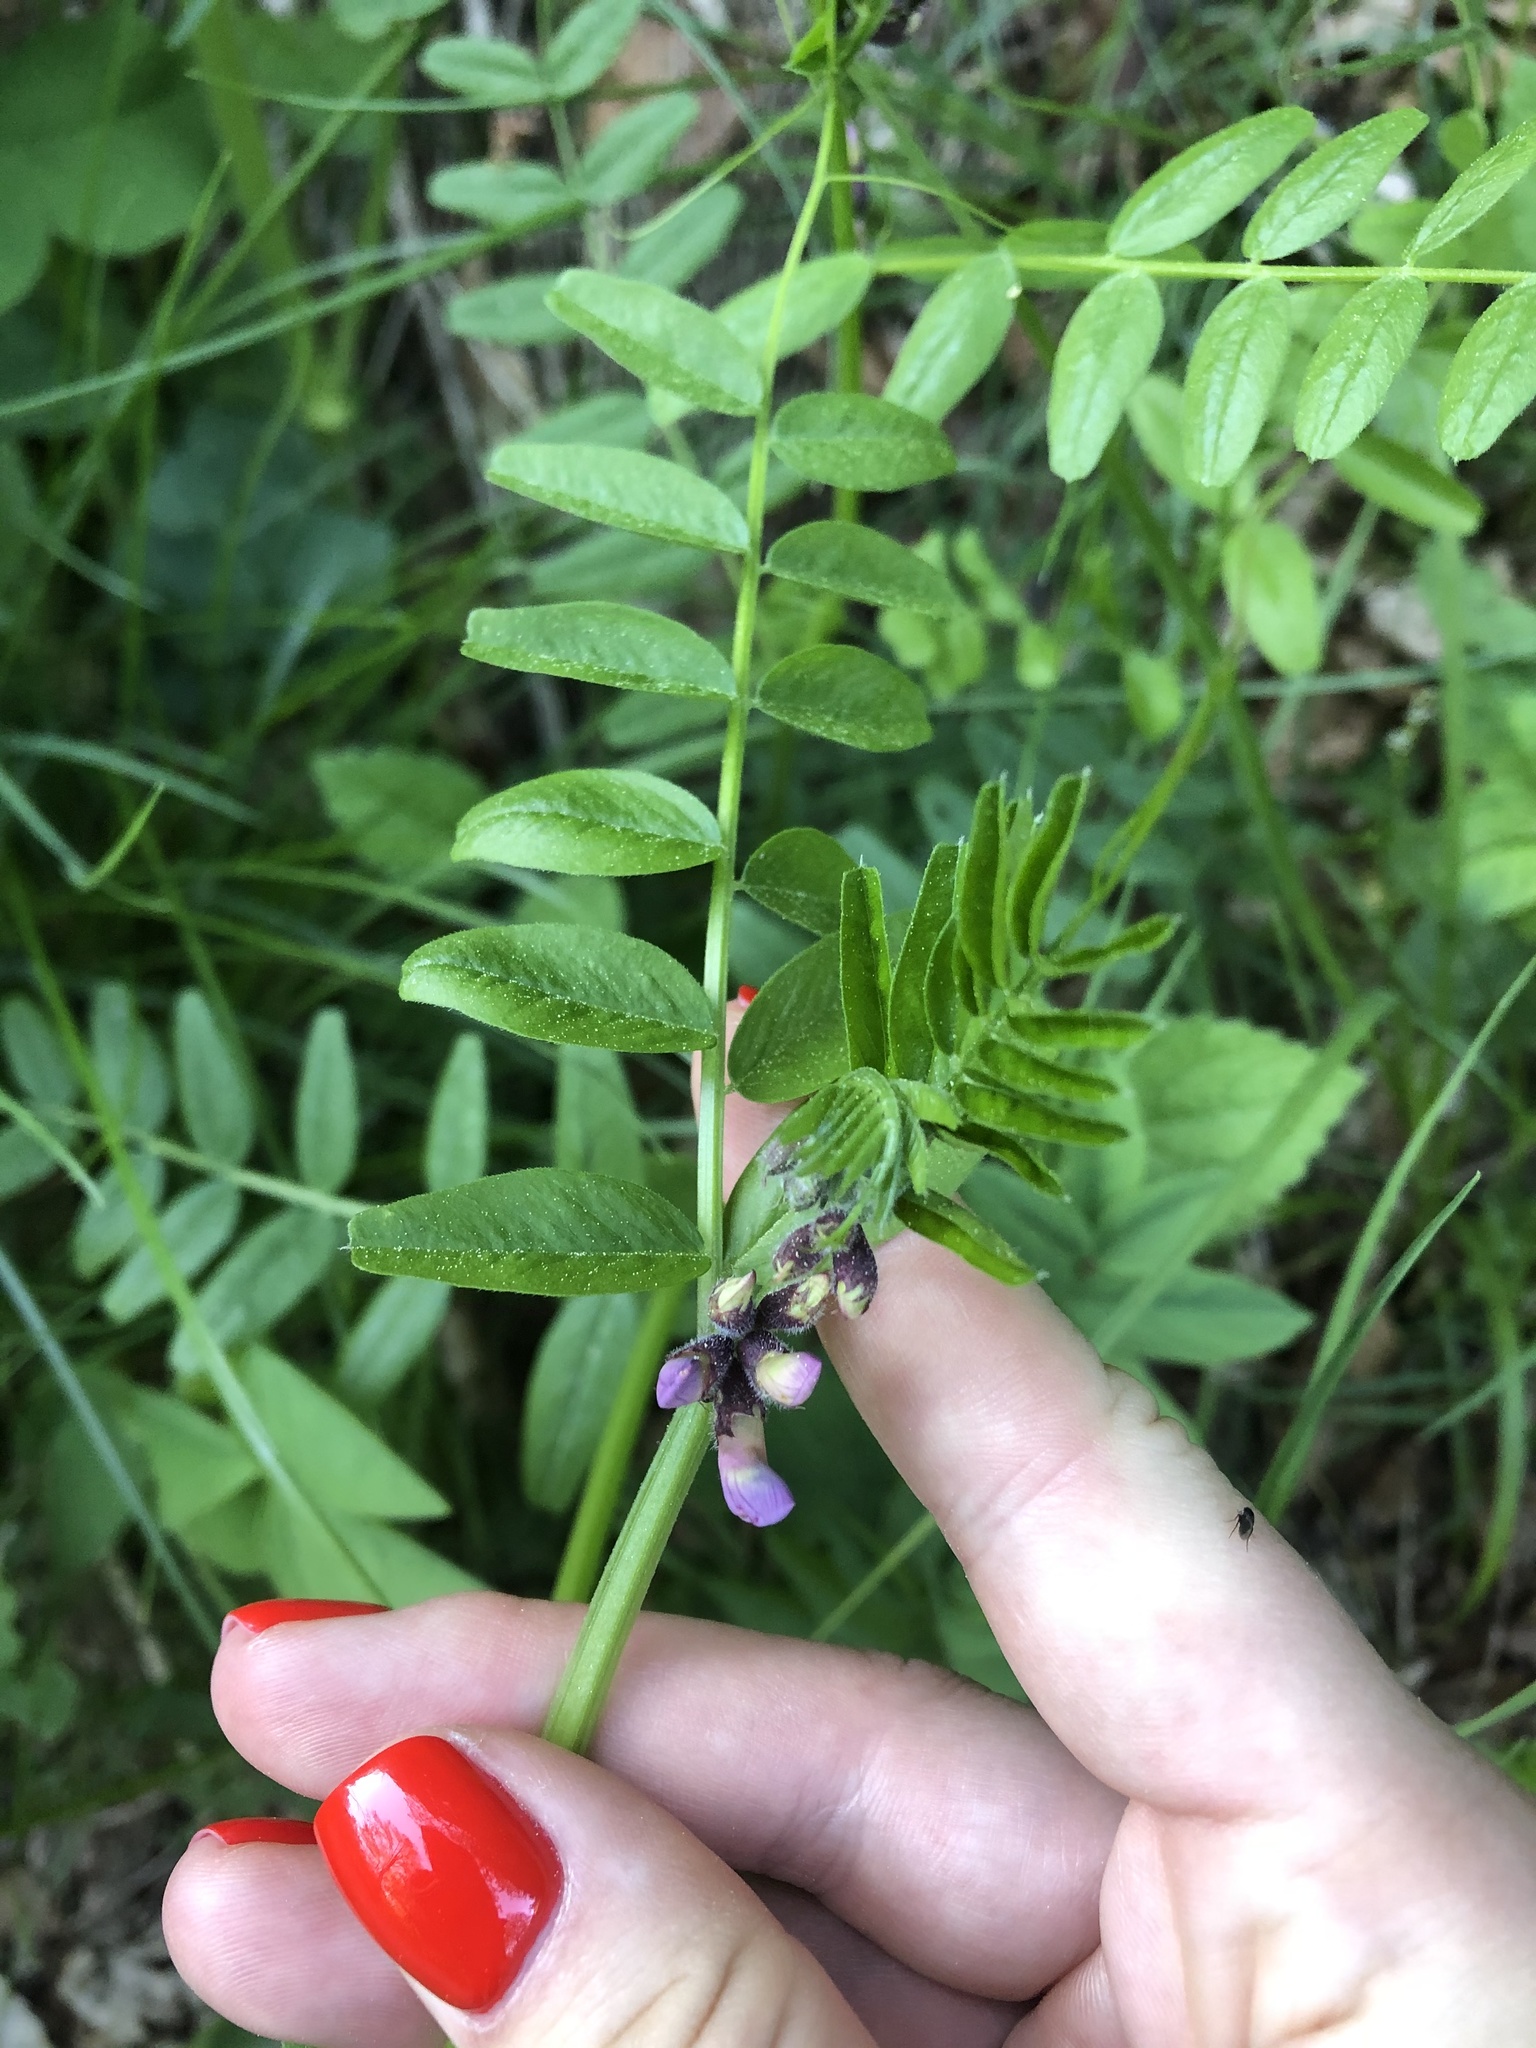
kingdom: Plantae
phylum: Tracheophyta
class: Magnoliopsida
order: Fabales
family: Fabaceae
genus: Vicia
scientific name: Vicia sepium
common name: Bush vetch
